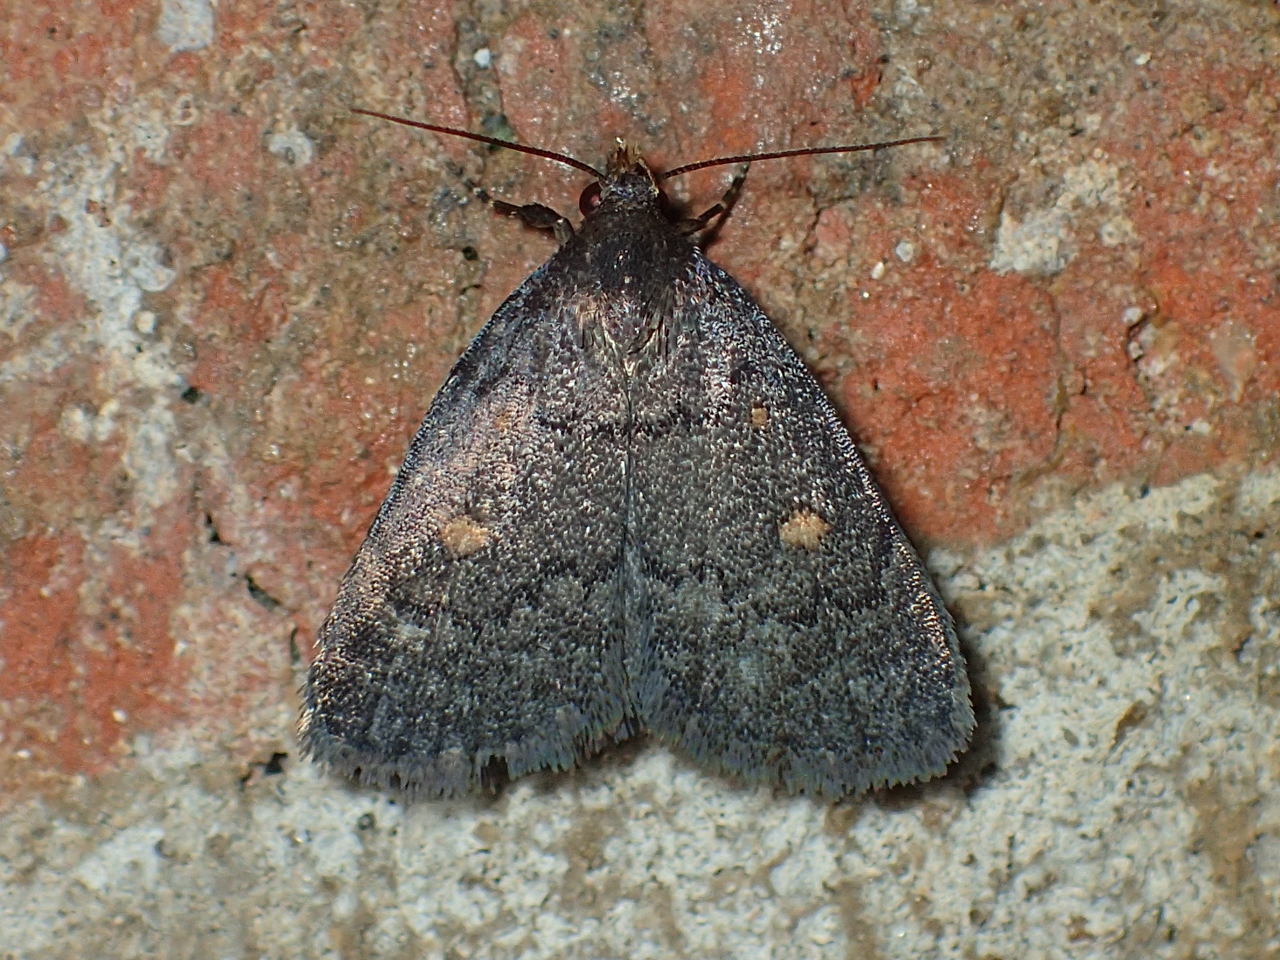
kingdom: Animalia
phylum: Arthropoda
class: Insecta
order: Lepidoptera
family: Erebidae
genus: Idia
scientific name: Idia diminuendis
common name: Orange-spotted idia moth
